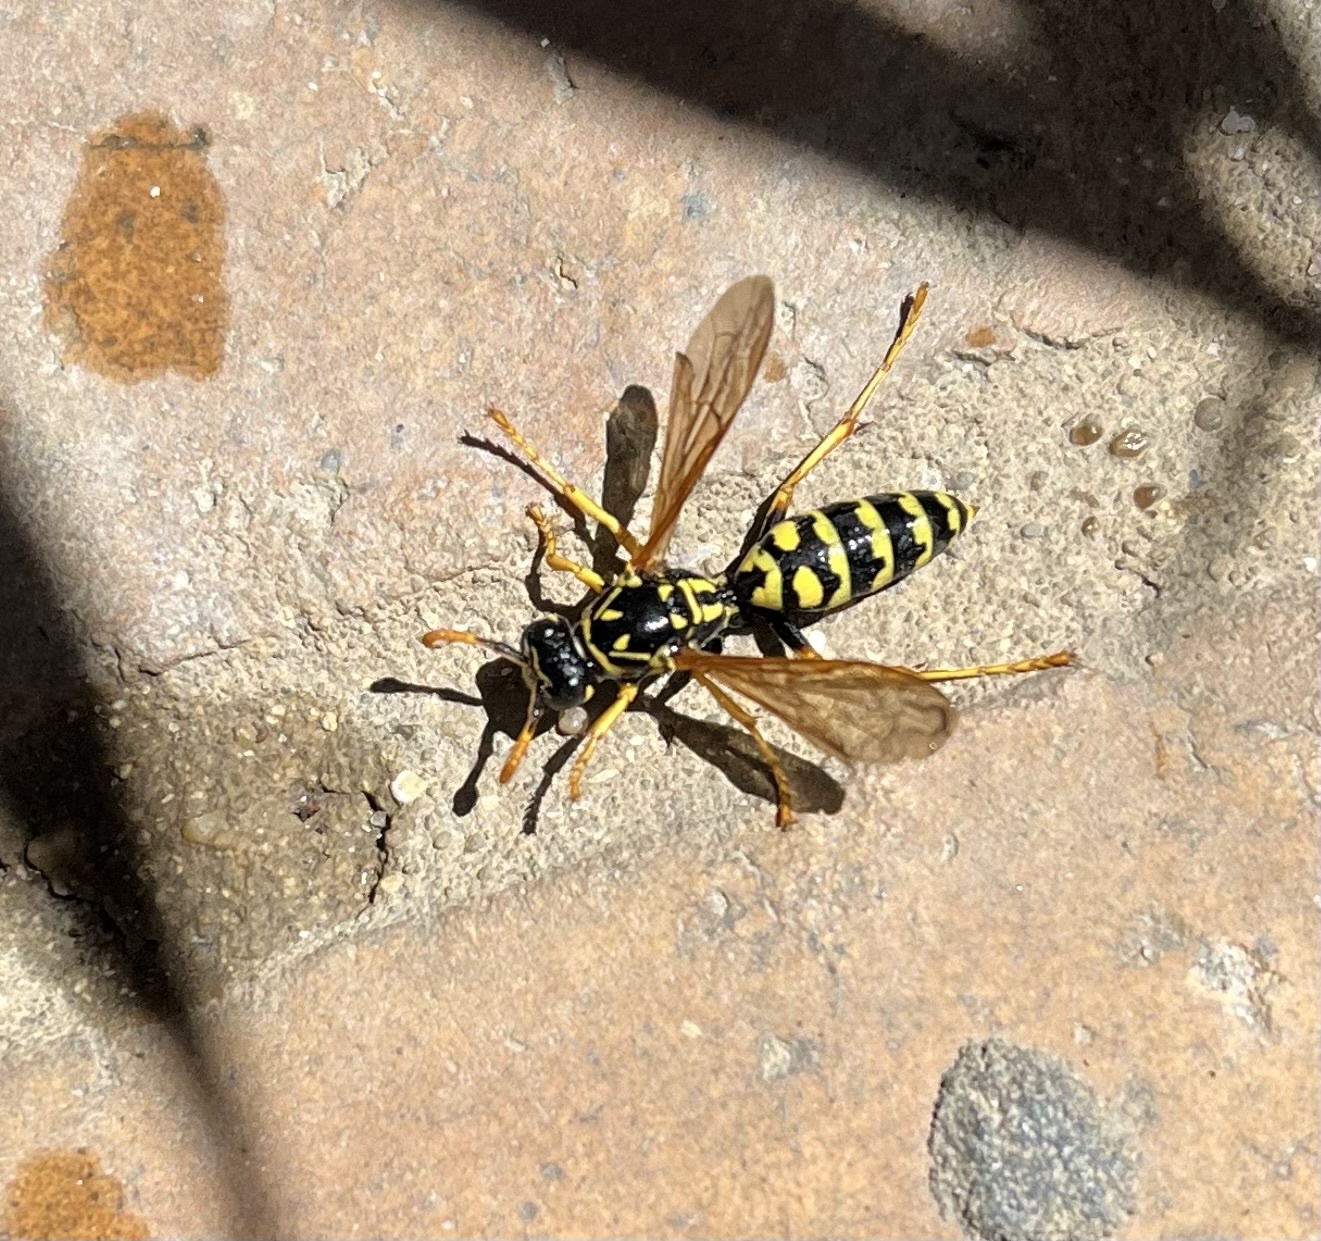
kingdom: Animalia
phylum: Arthropoda
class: Insecta
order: Hymenoptera
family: Eumenidae
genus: Polistes
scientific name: Polistes dominula
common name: Paper wasp
